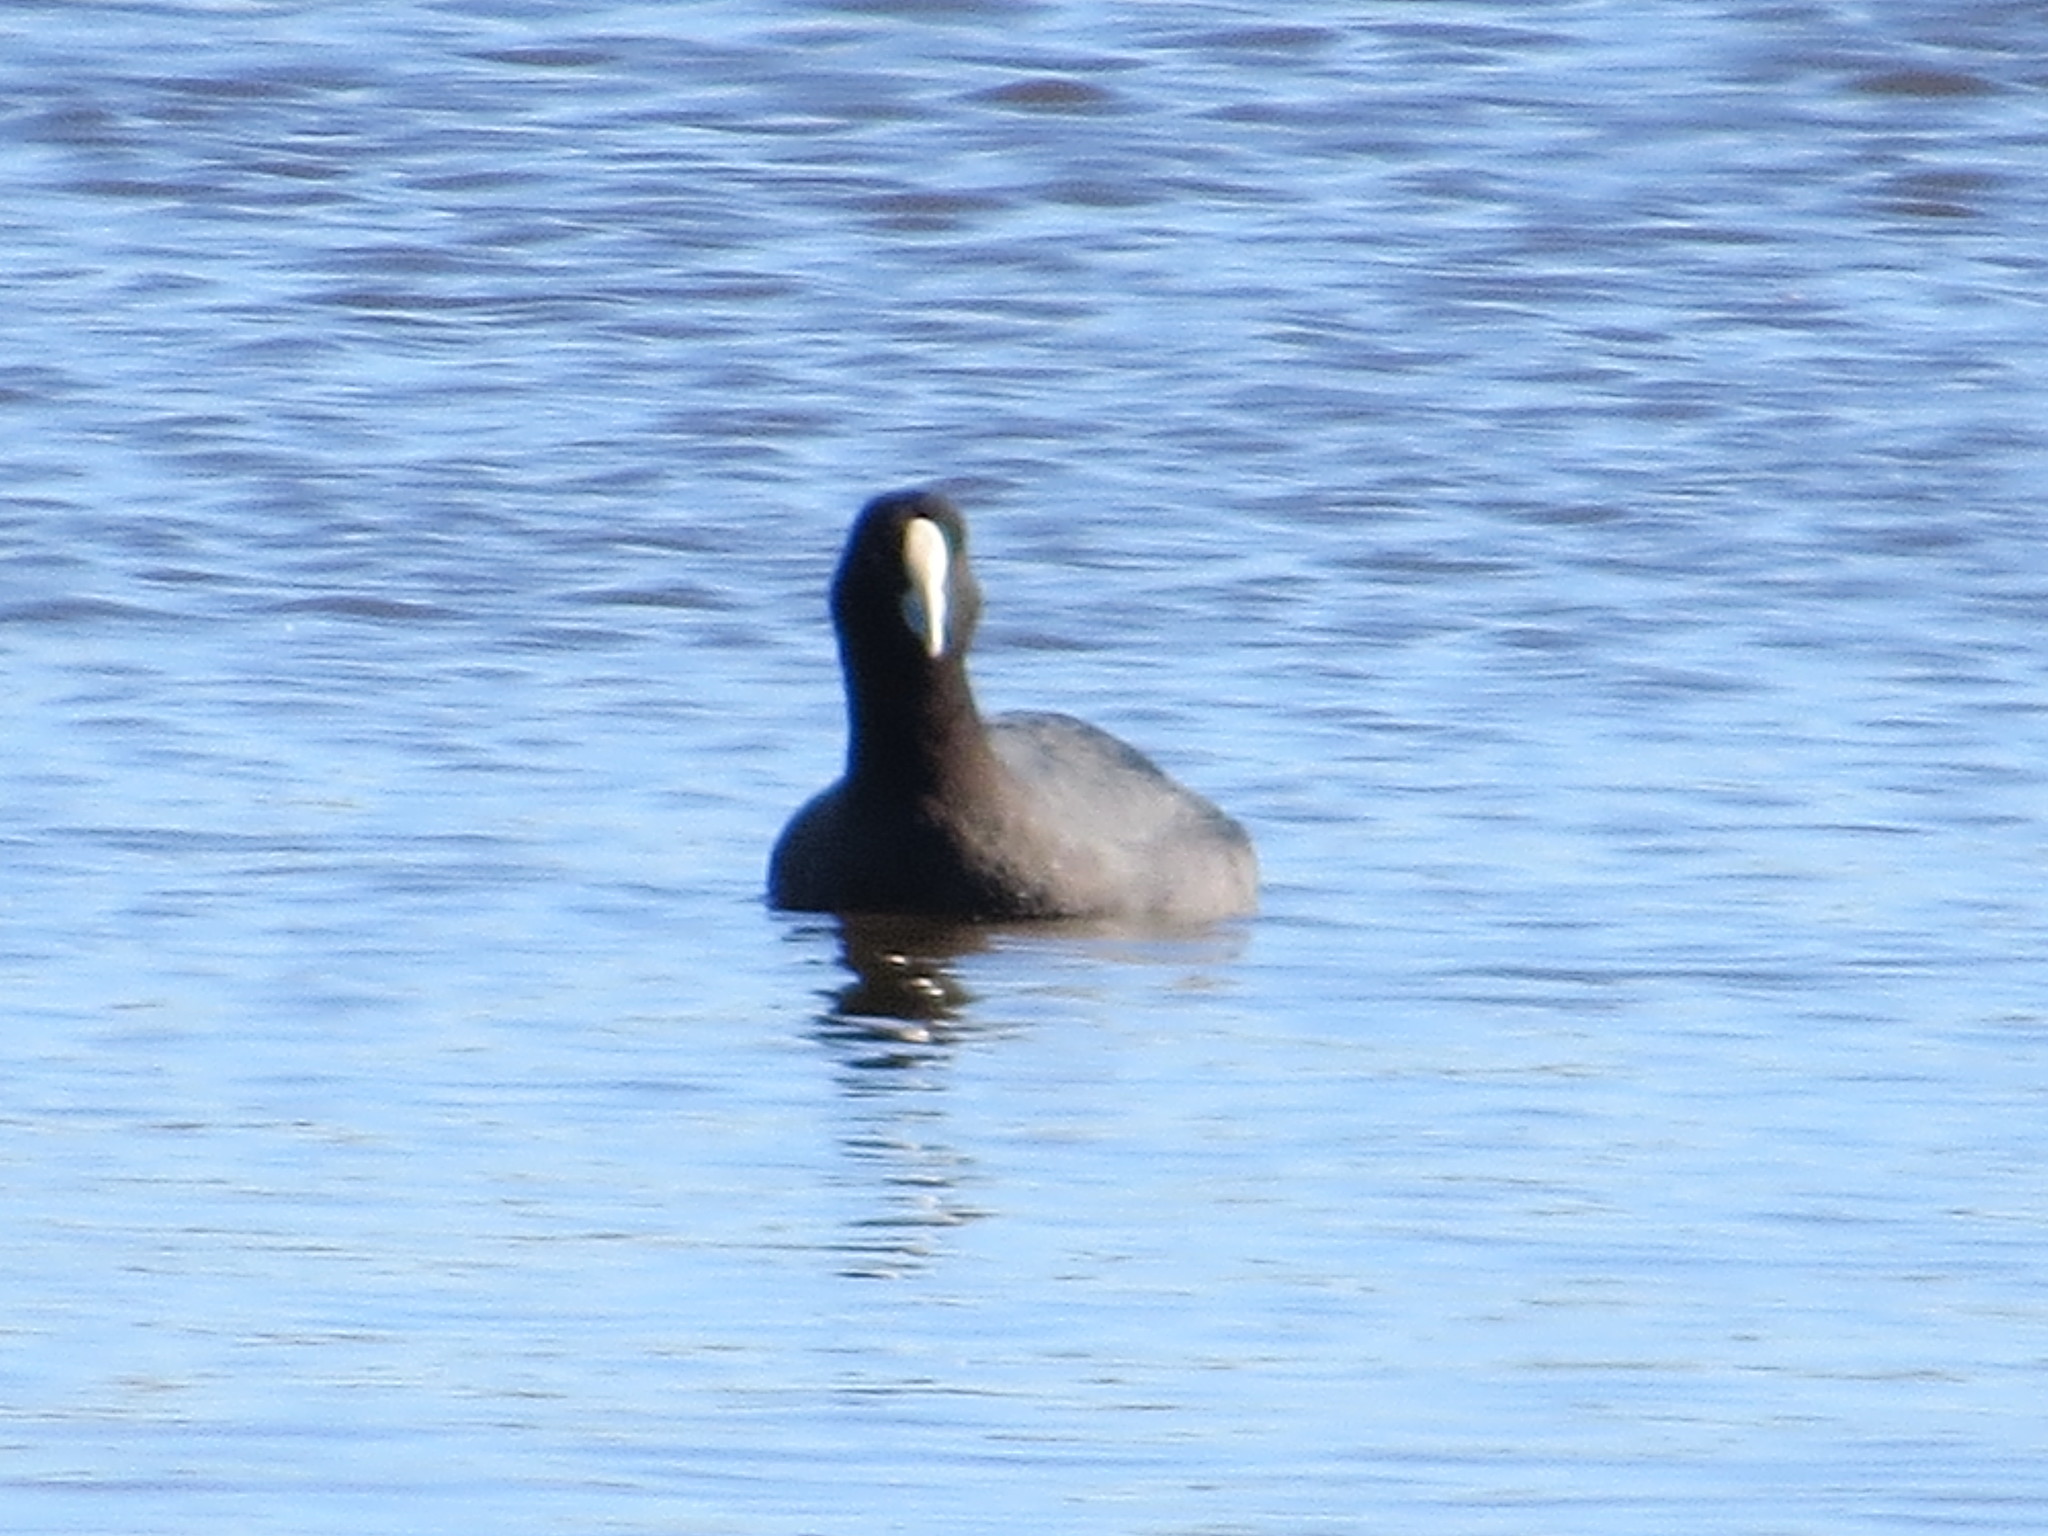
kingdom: Animalia
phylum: Chordata
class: Aves
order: Gruiformes
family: Rallidae
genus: Fulica
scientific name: Fulica atra
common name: Eurasian coot
